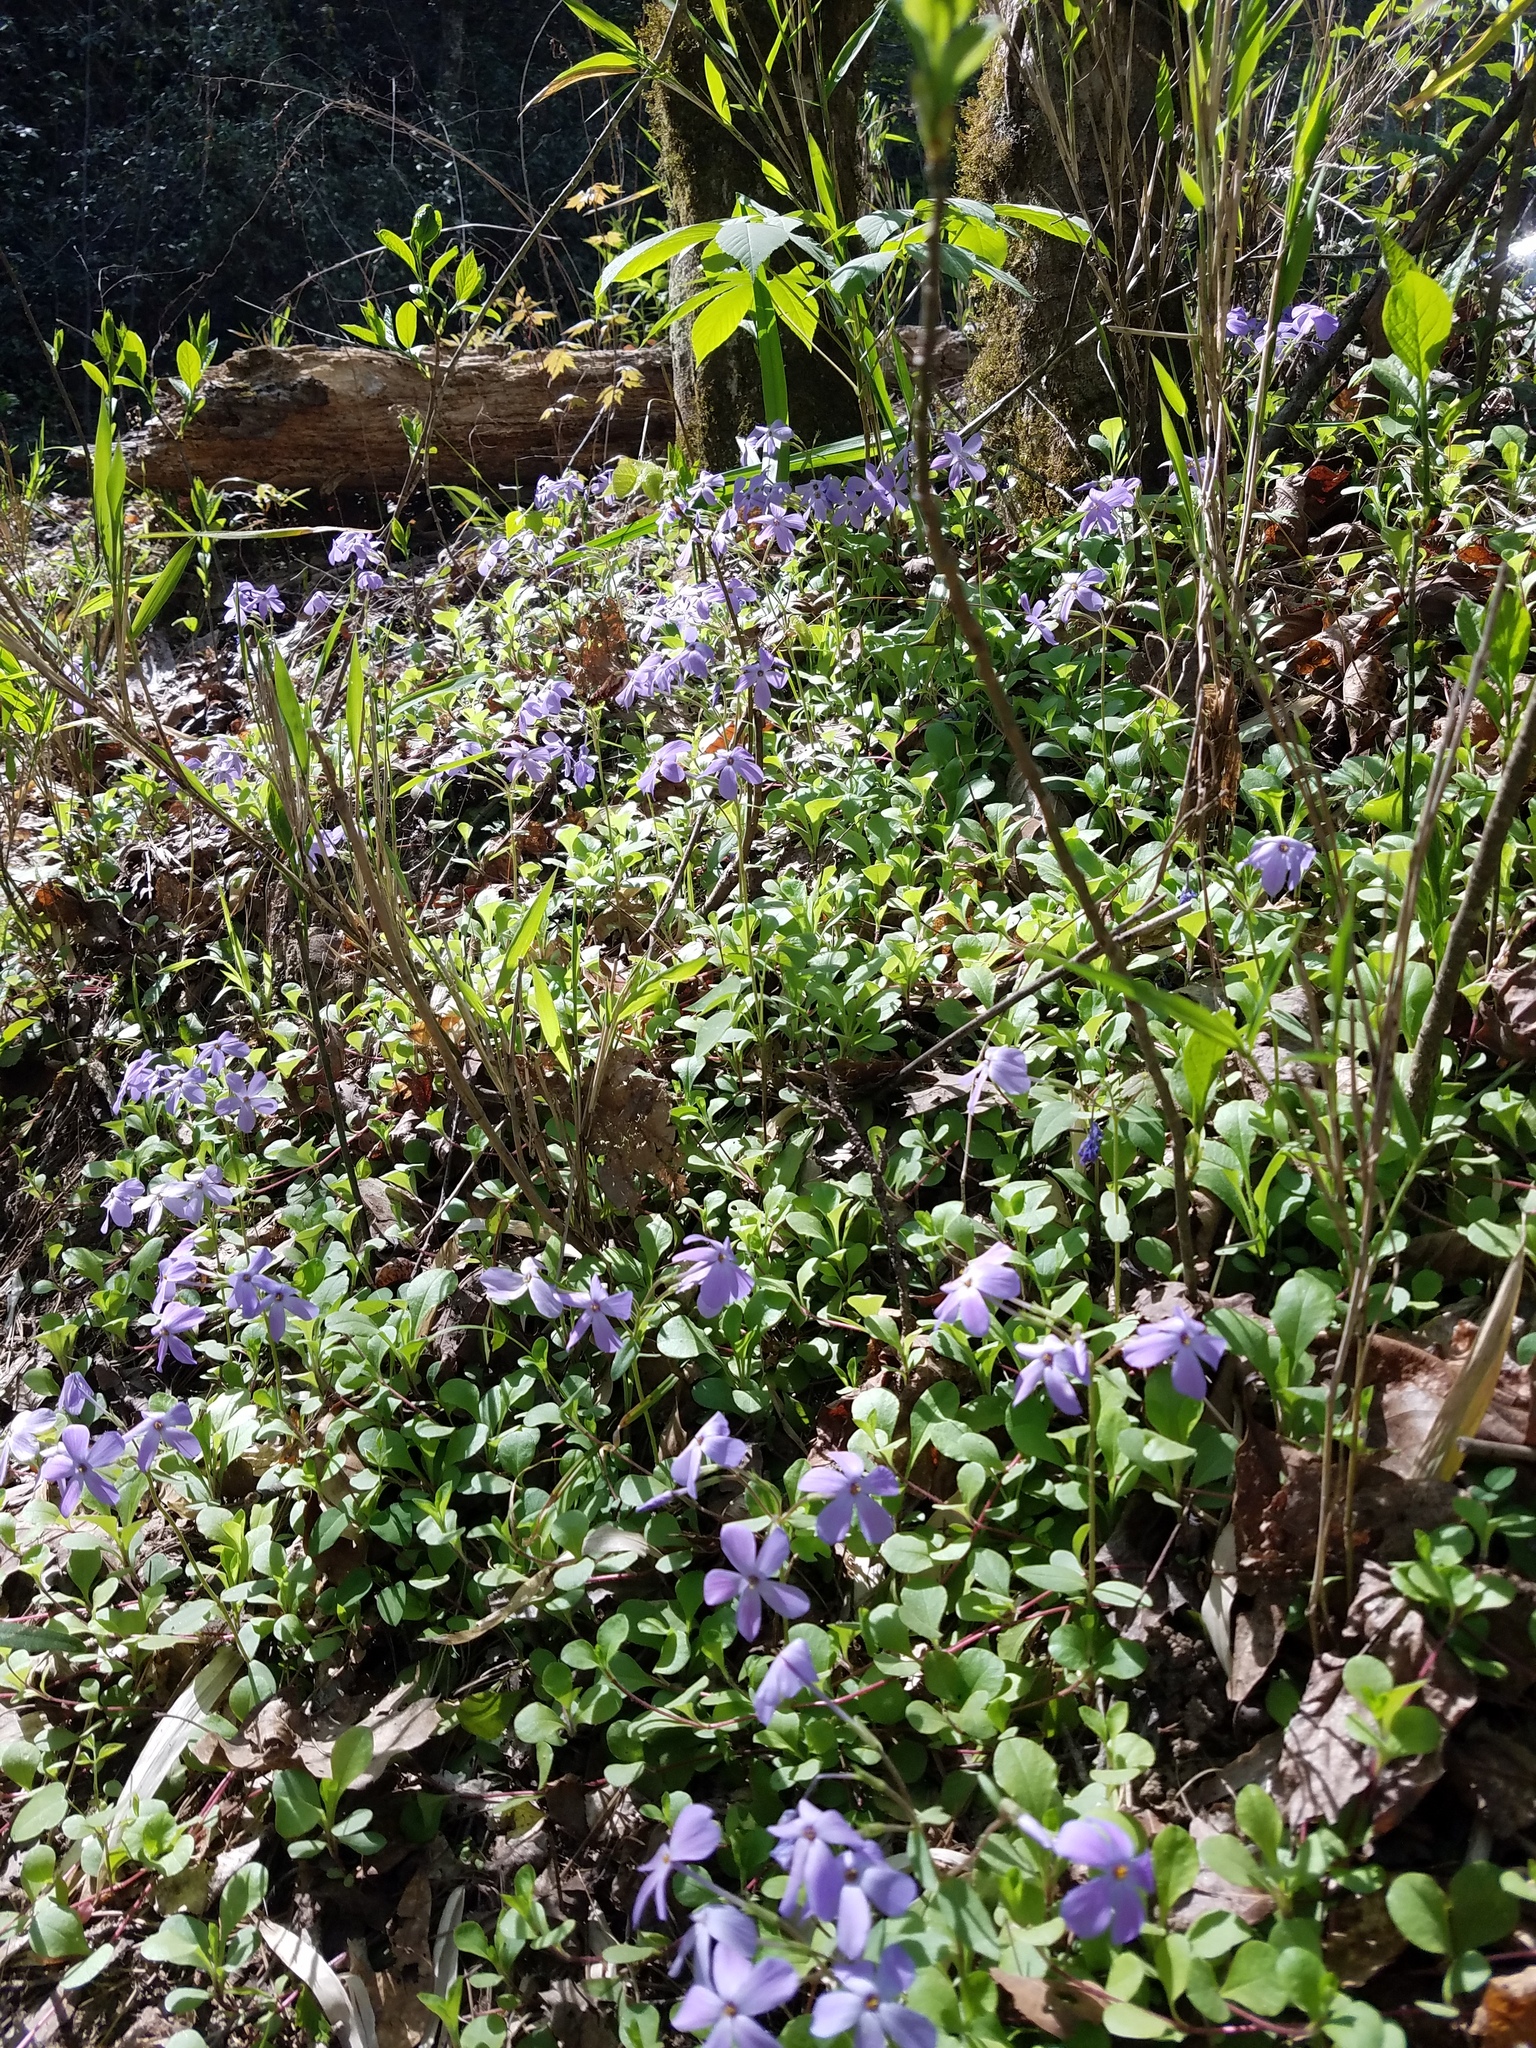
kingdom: Plantae
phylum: Tracheophyta
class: Magnoliopsida
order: Ericales
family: Polemoniaceae
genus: Phlox
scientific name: Phlox stolonifera
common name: Creeping phlox
